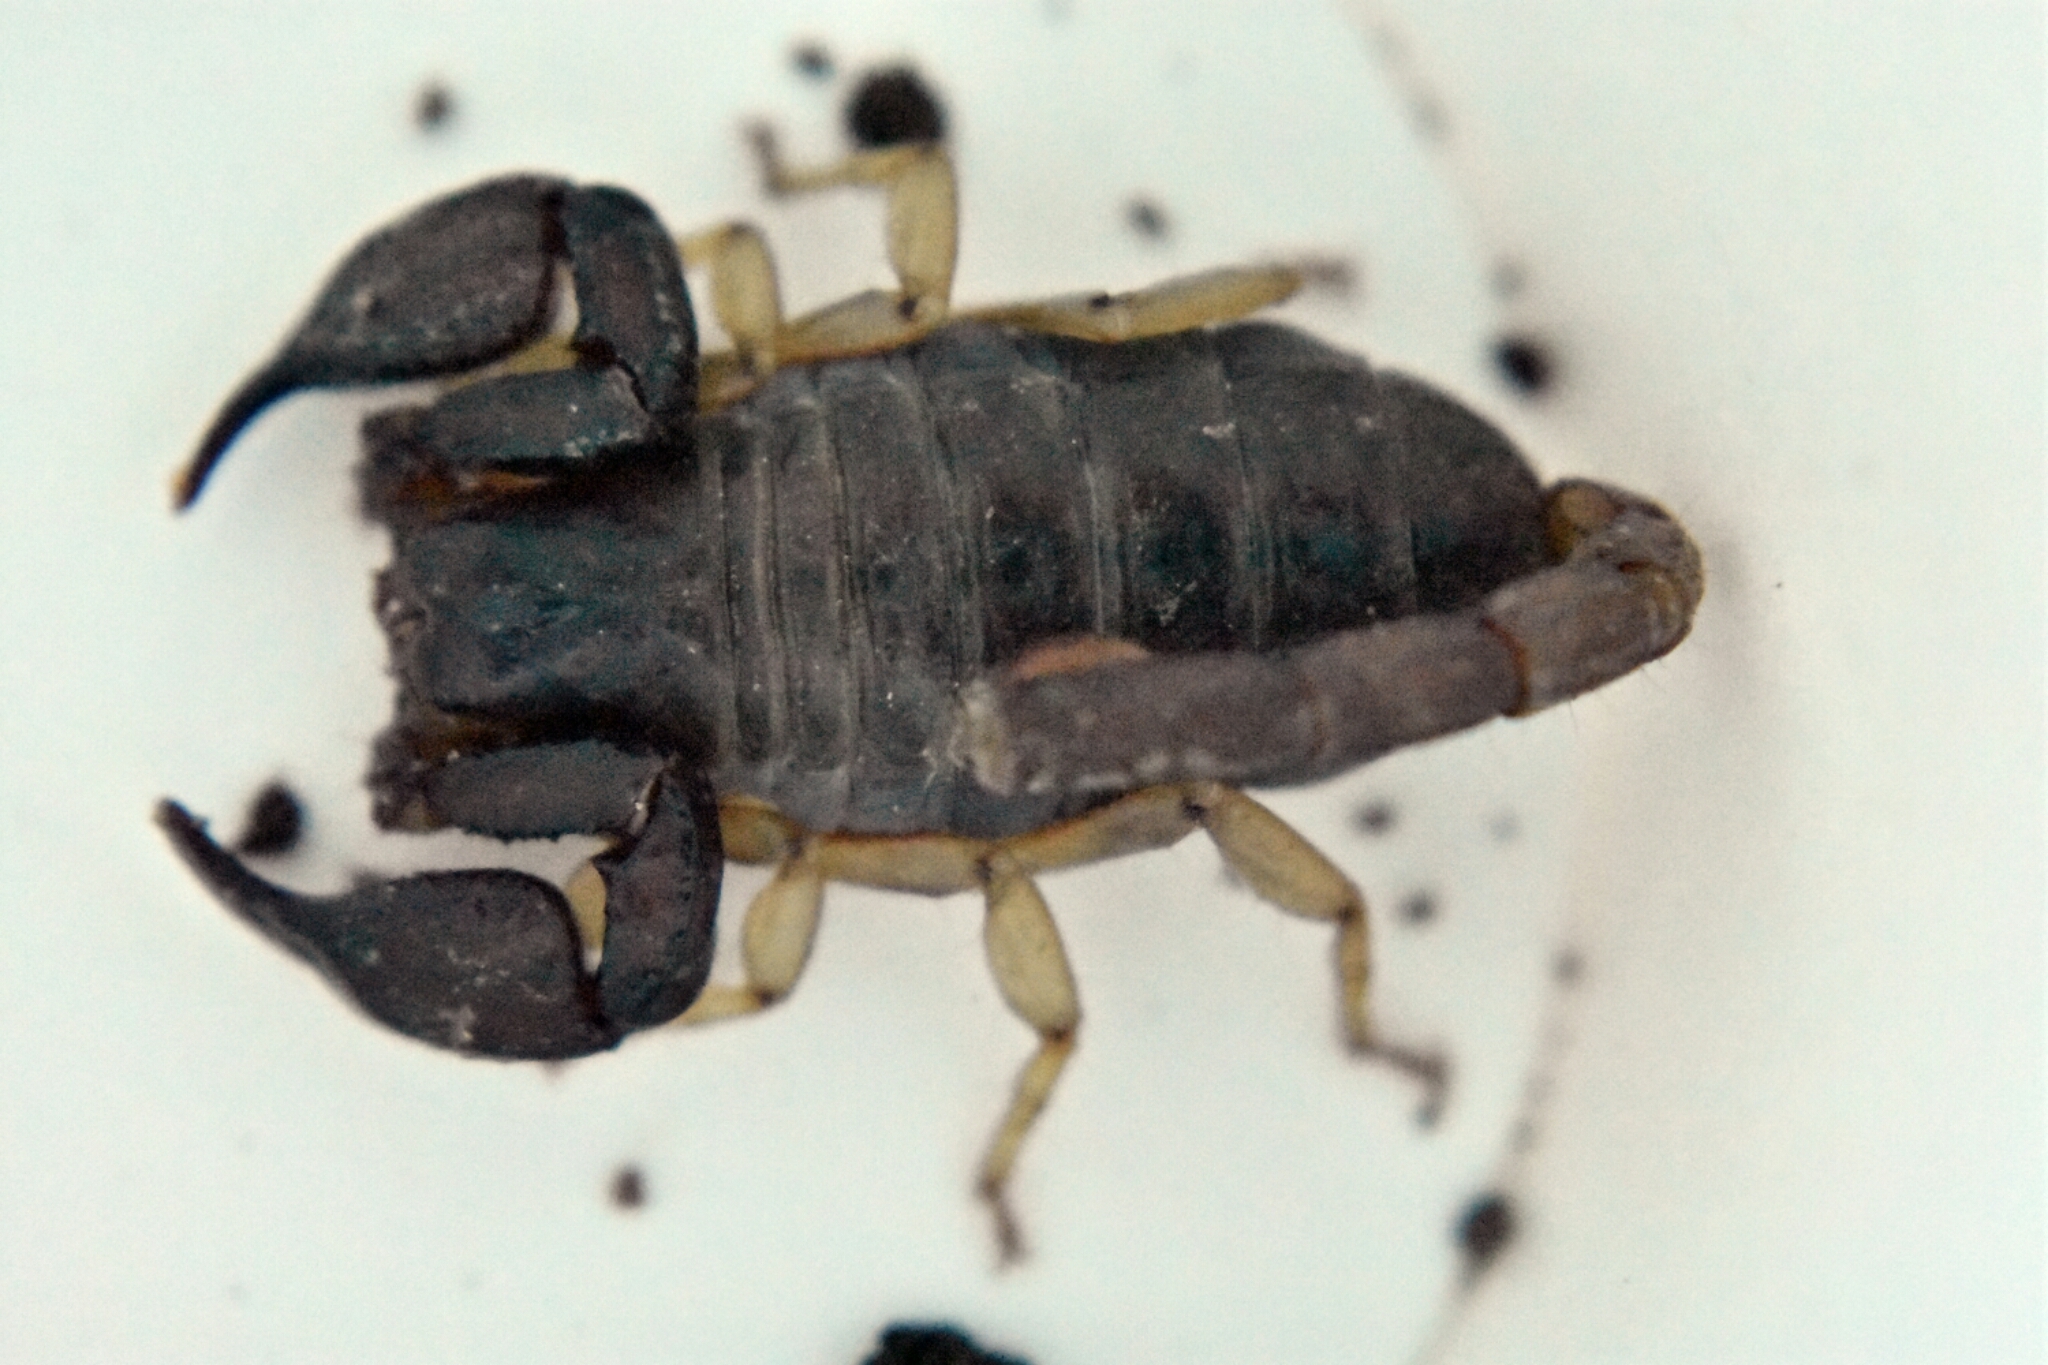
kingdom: Animalia
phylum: Arthropoda
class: Arachnida
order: Scorpiones
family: Chactidae
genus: Uroctonus
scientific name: Uroctonus mordax
